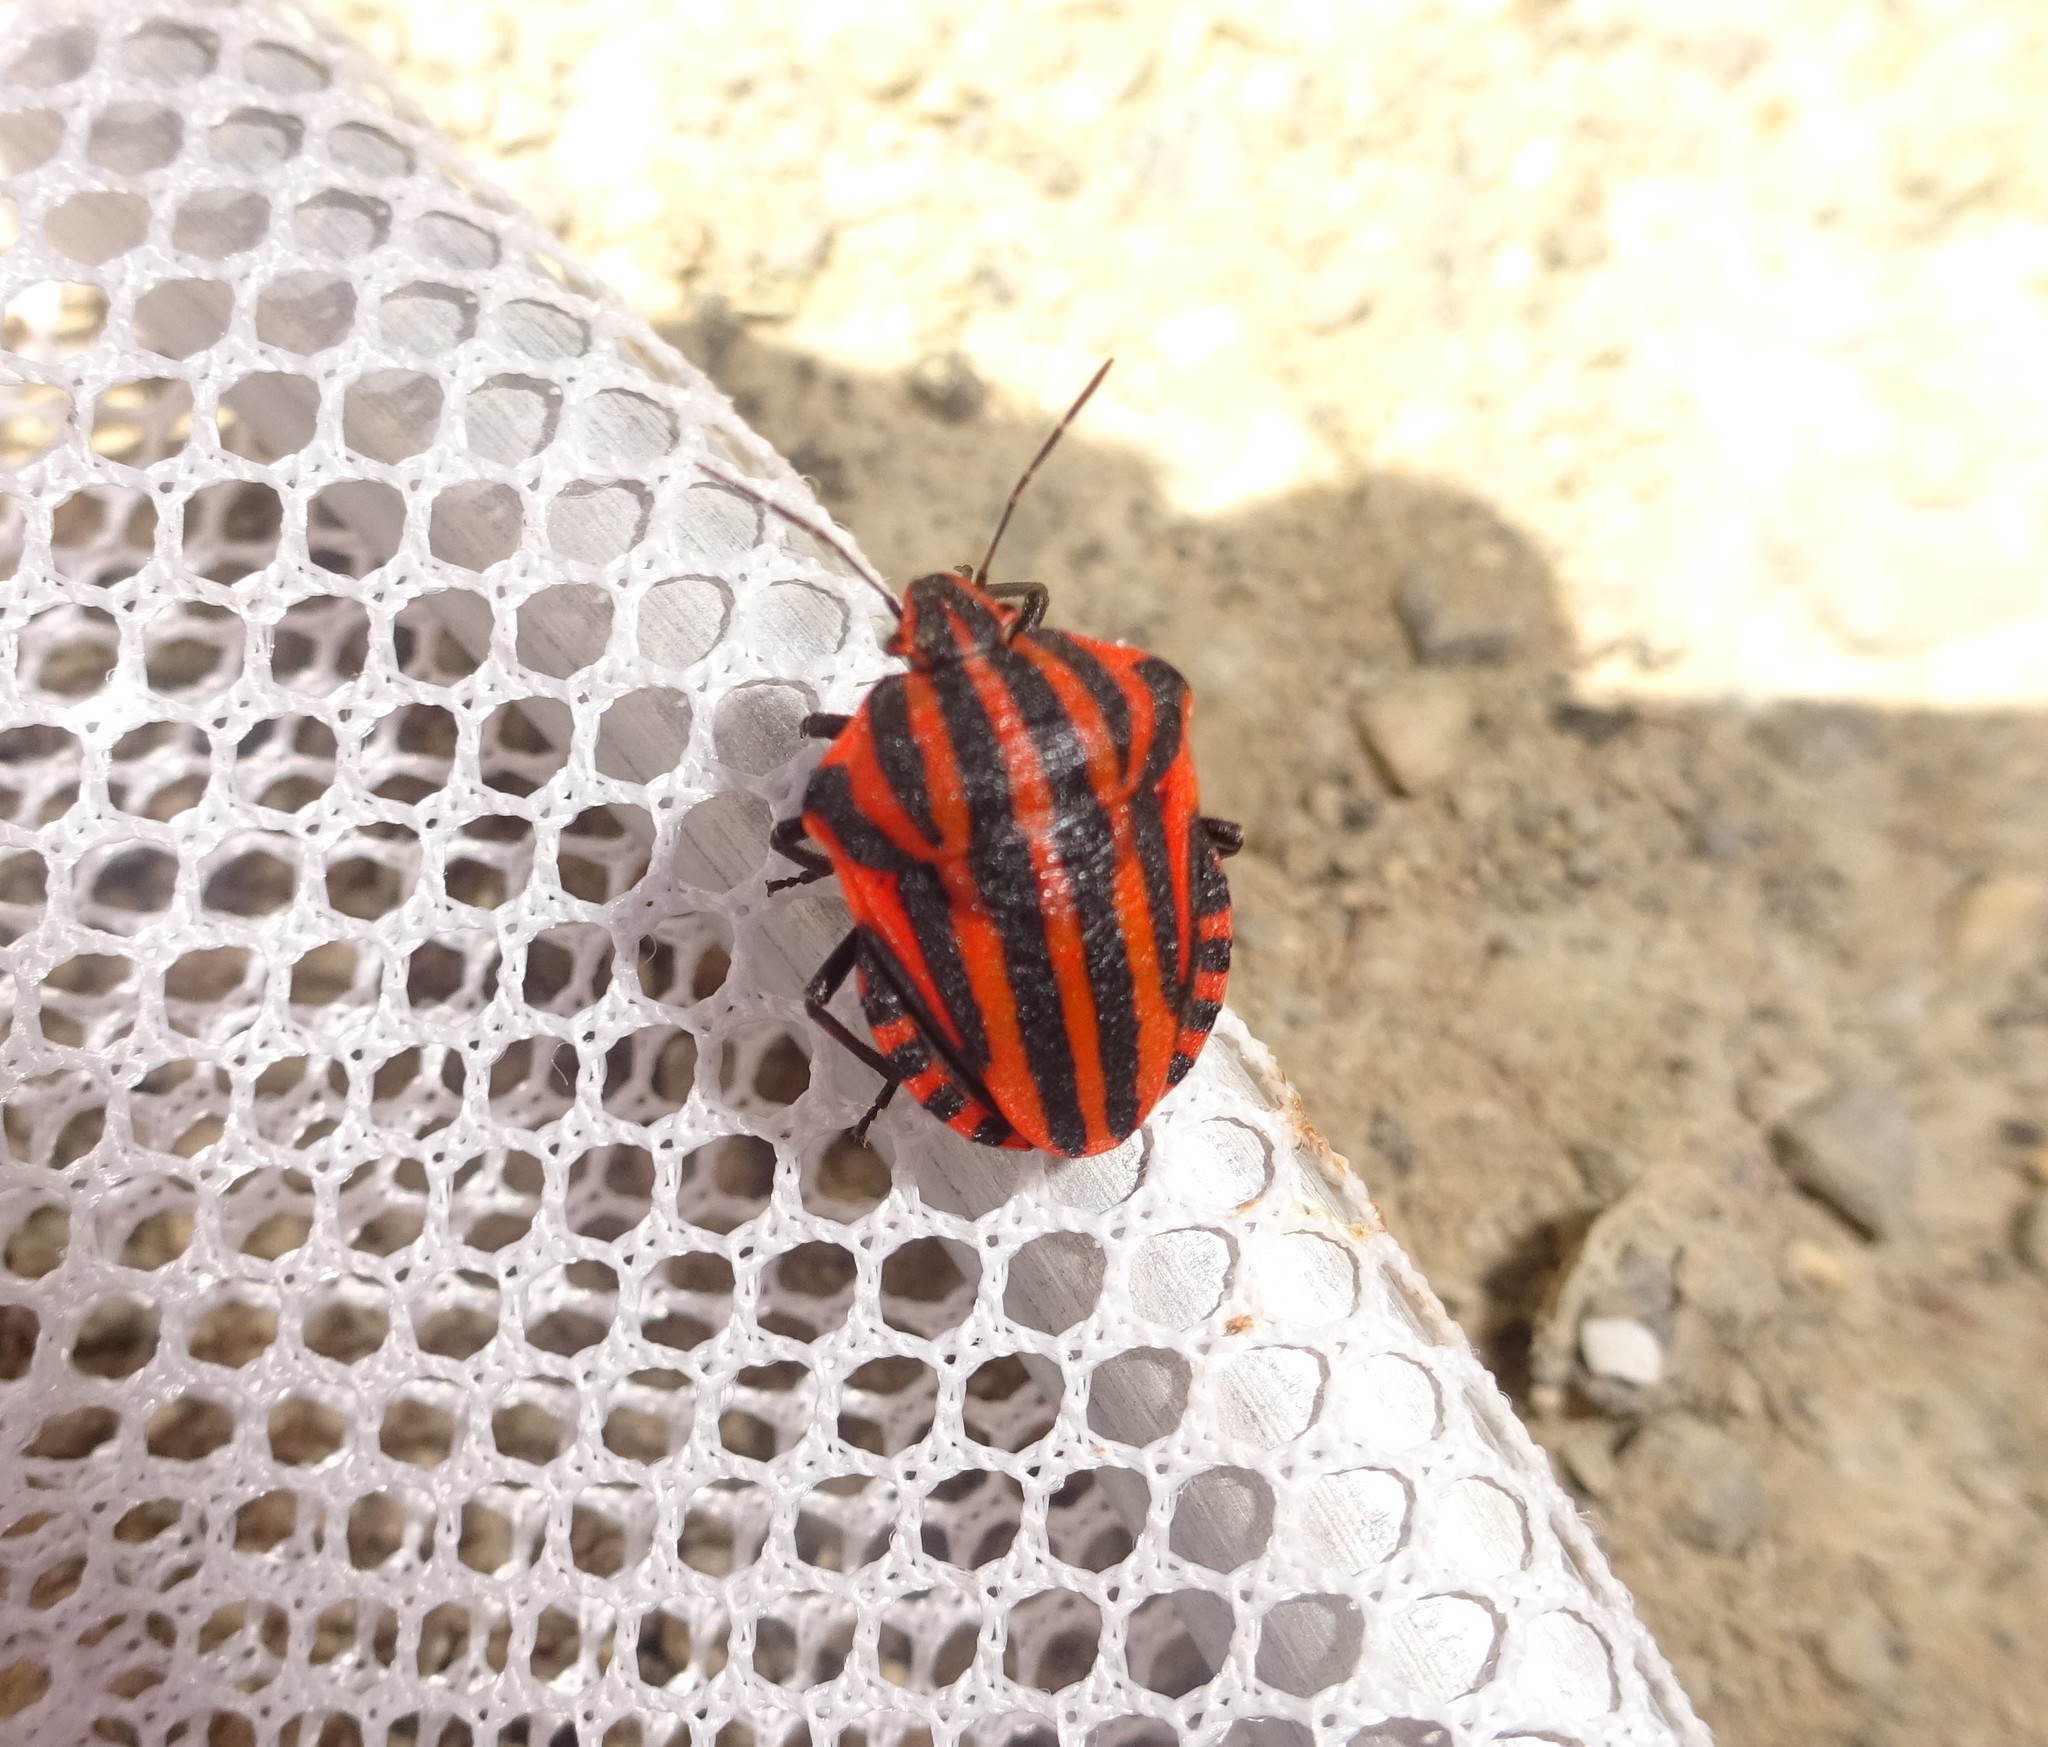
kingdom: Animalia
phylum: Arthropoda
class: Insecta
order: Hemiptera
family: Pentatomidae
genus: Graphosoma
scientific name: Graphosoma italicum
